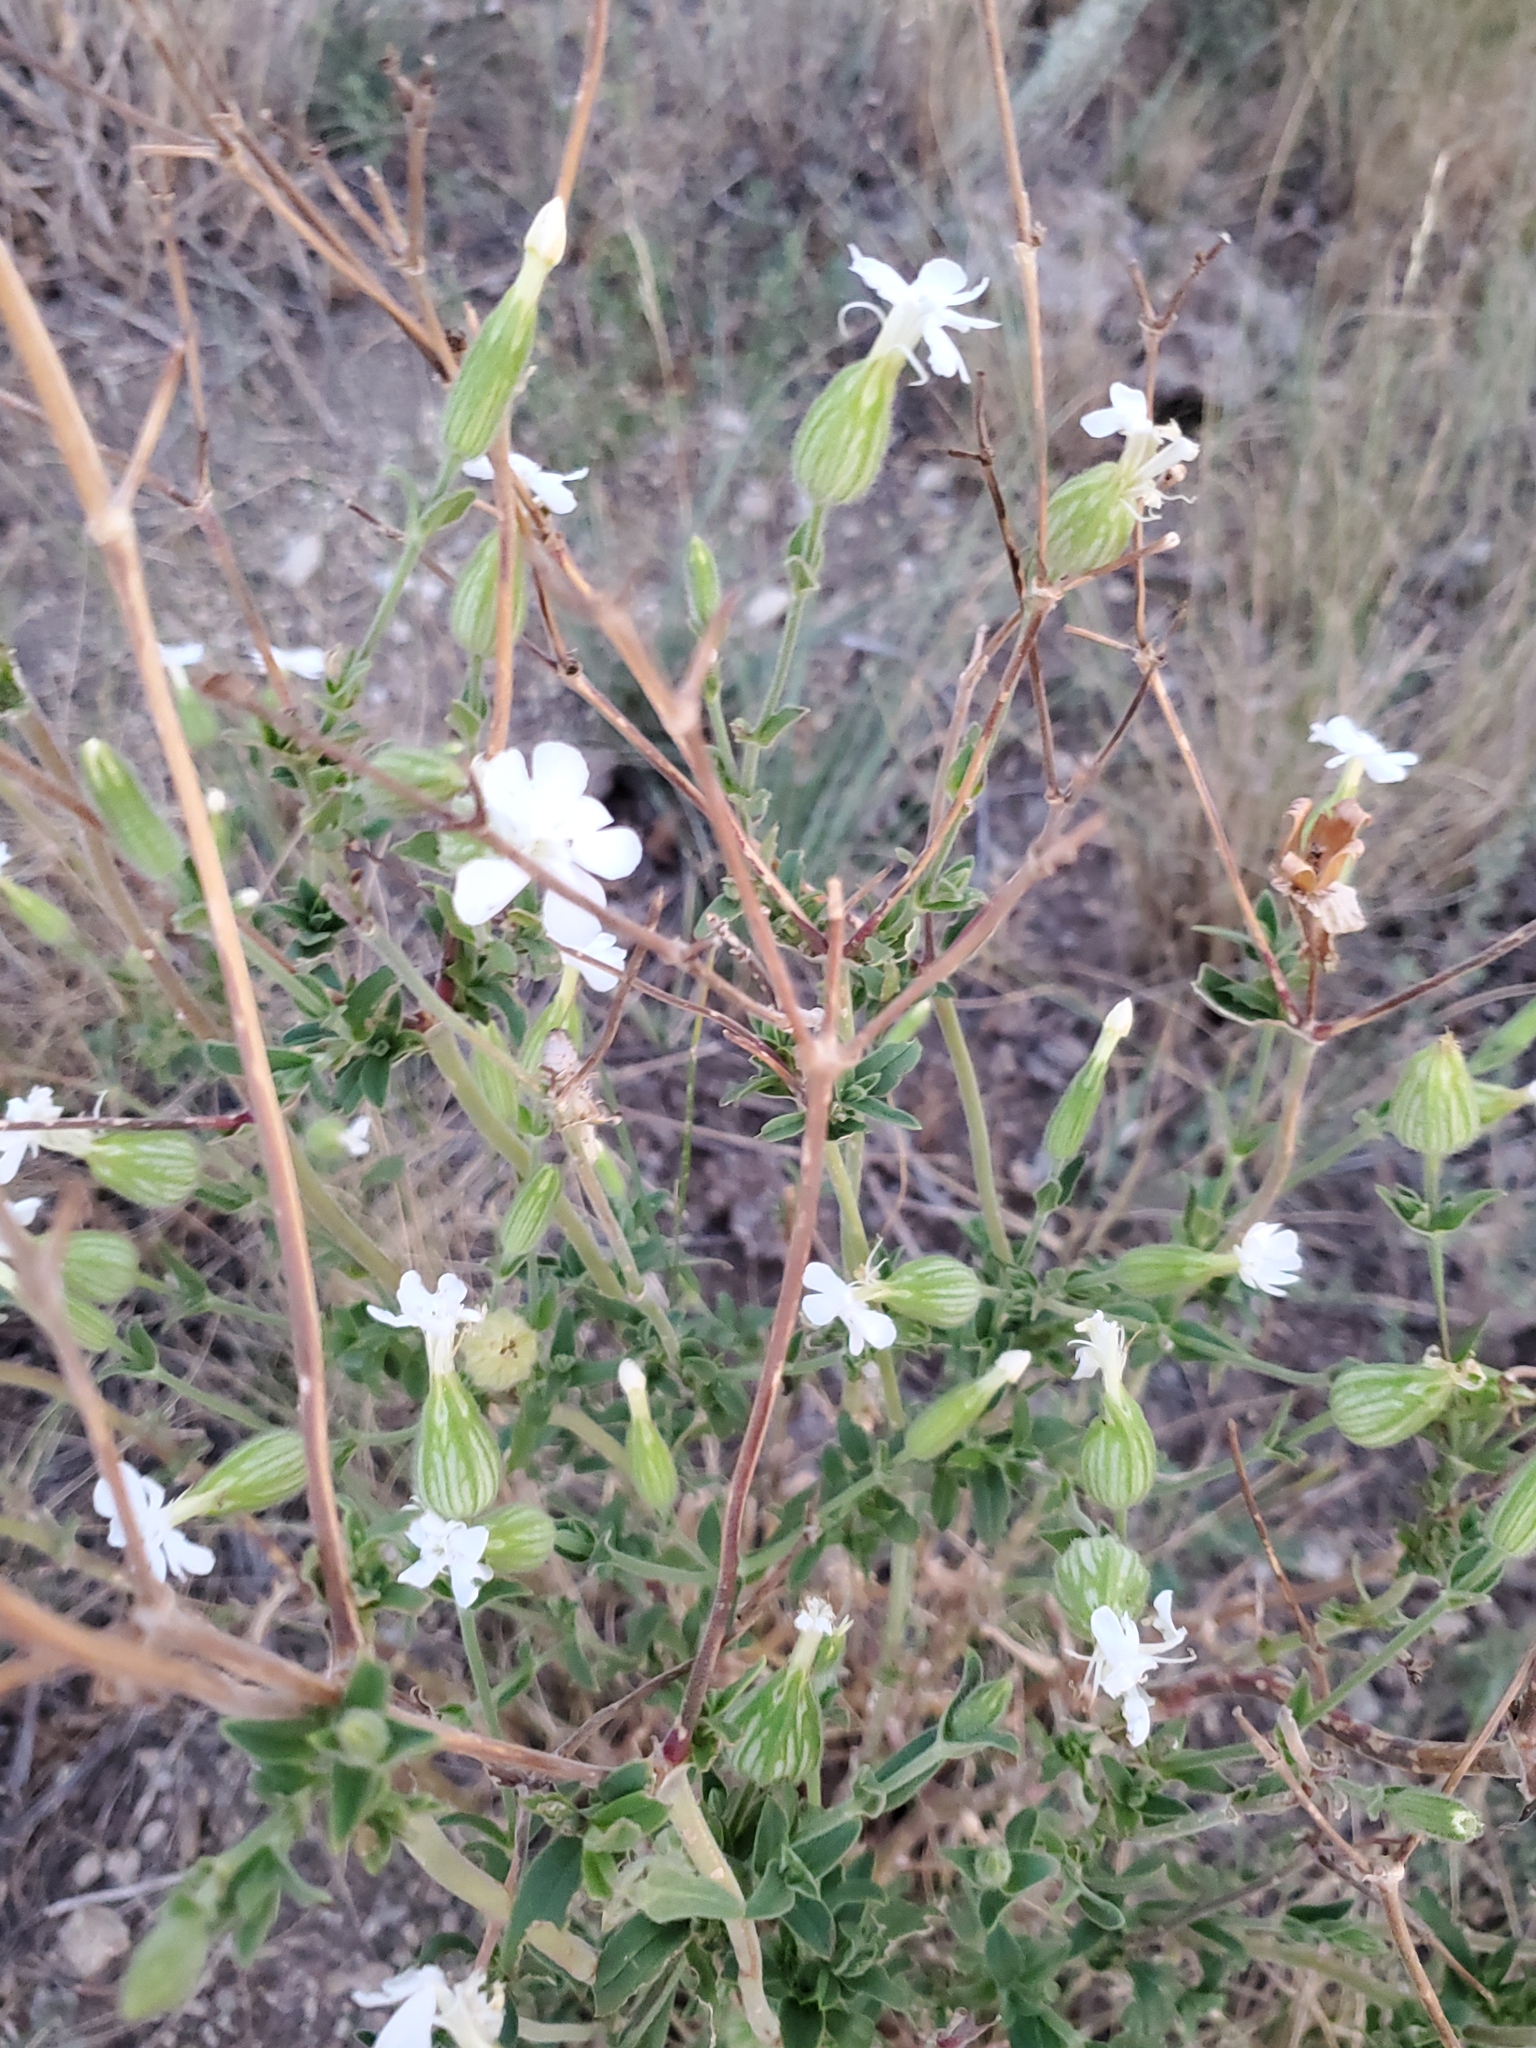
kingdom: Plantae
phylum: Tracheophyta
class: Magnoliopsida
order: Caryophyllales
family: Caryophyllaceae
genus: Silene
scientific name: Silene latifolia
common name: White campion
